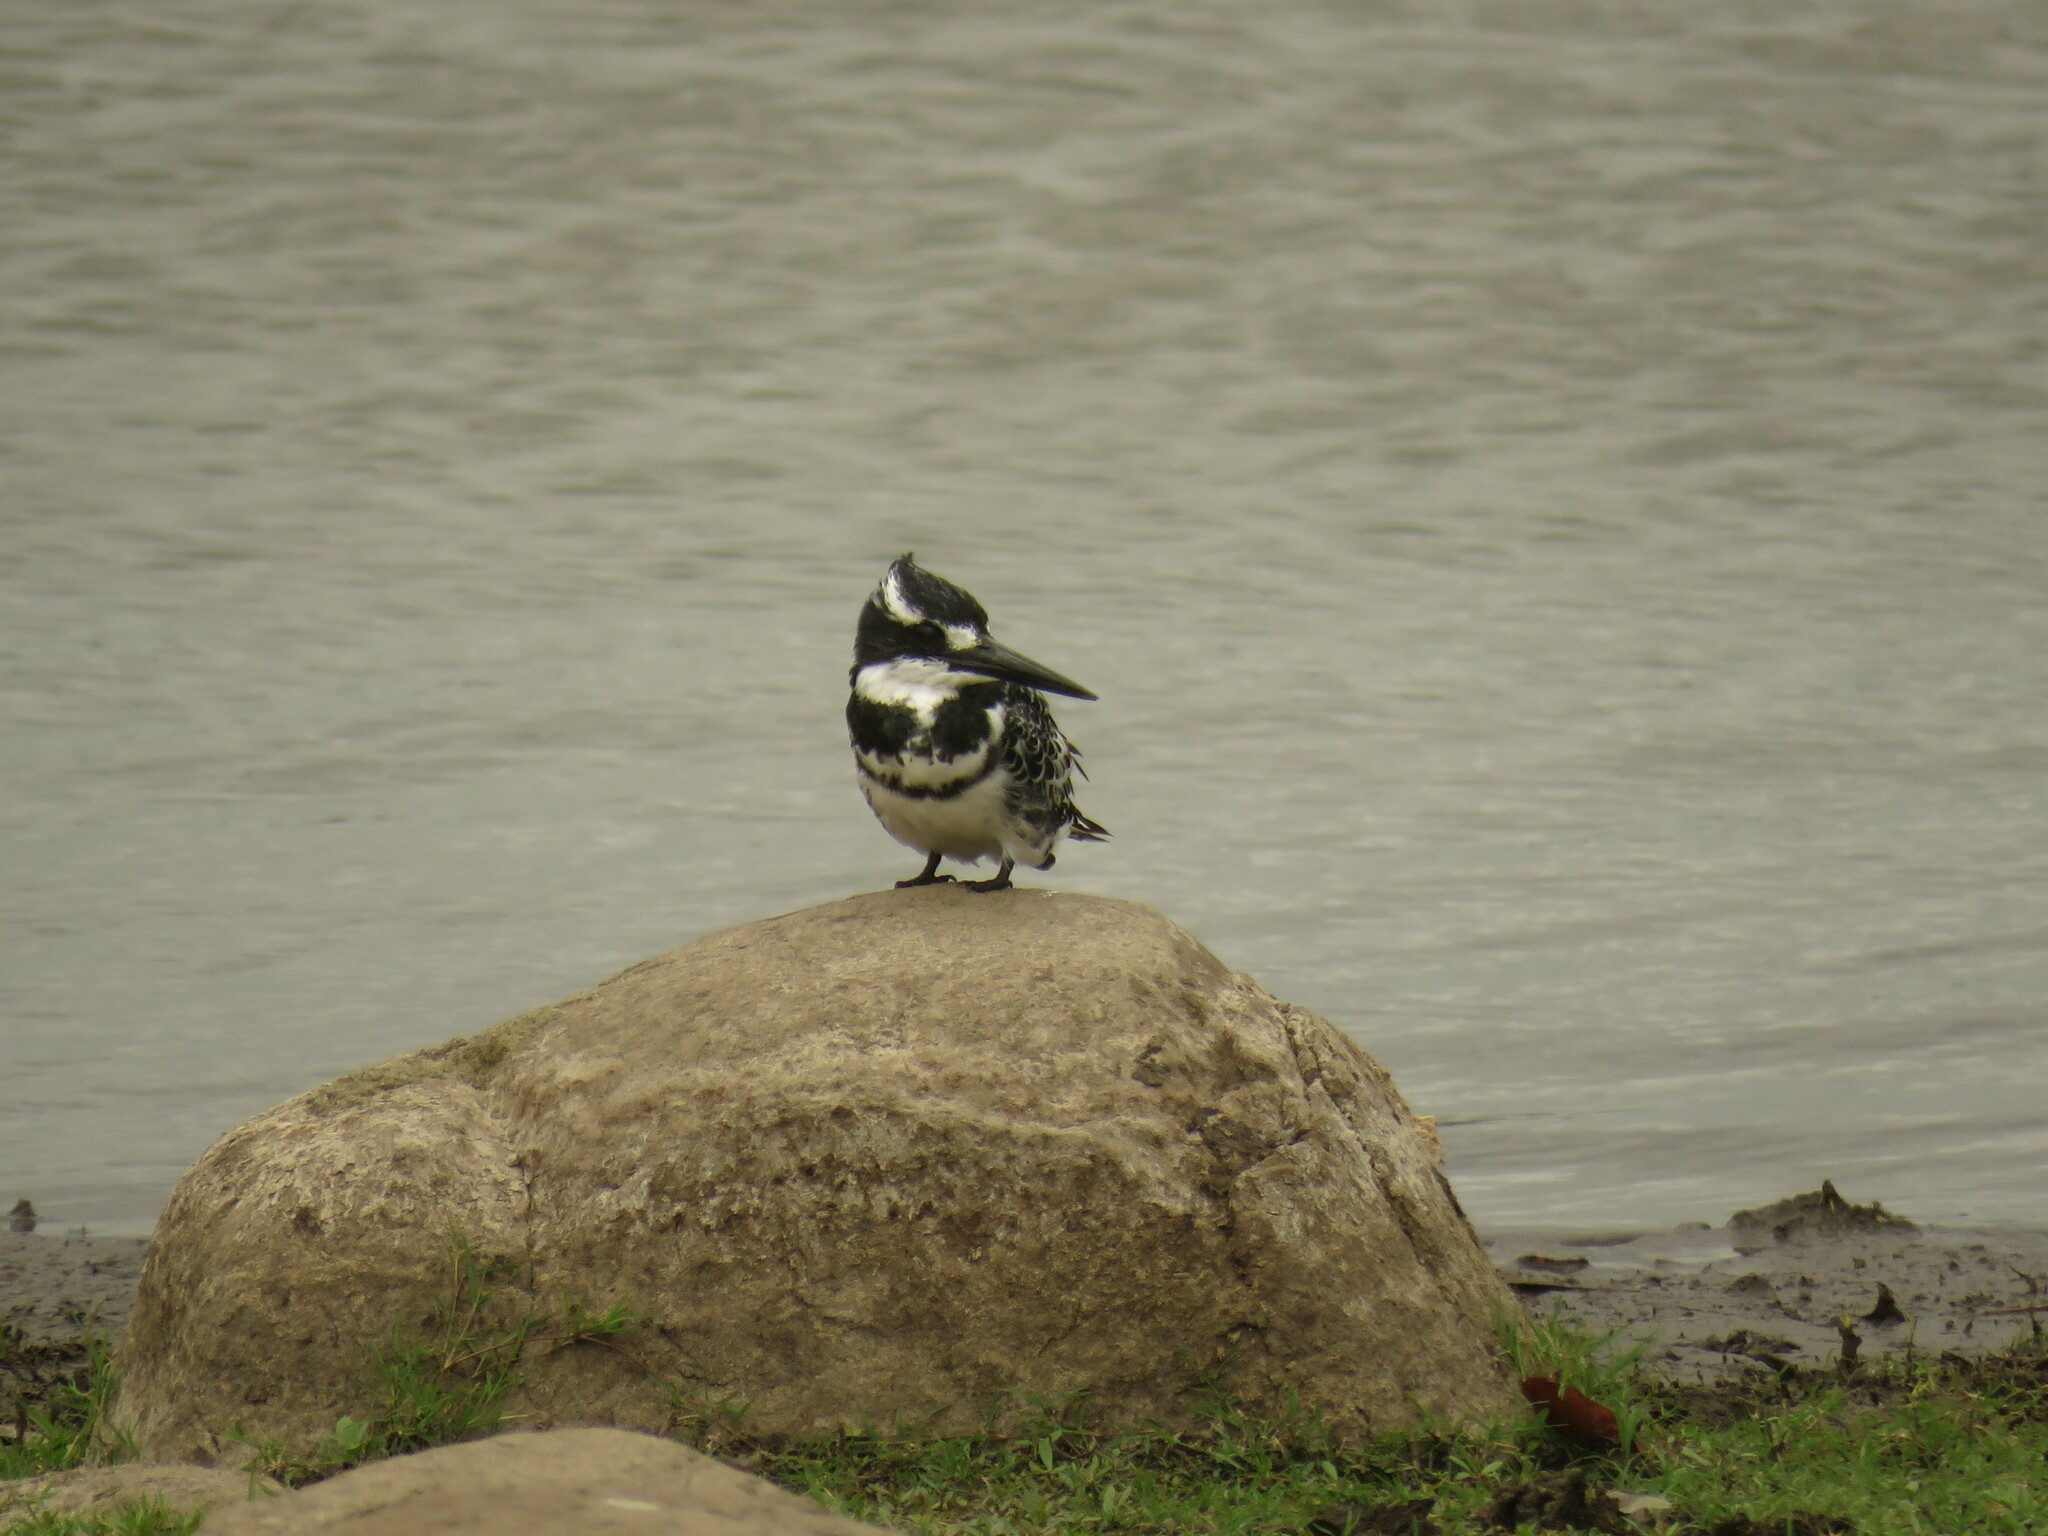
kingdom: Animalia
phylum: Chordata
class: Aves
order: Coraciiformes
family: Alcedinidae
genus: Ceryle
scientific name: Ceryle rudis
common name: Pied kingfisher
